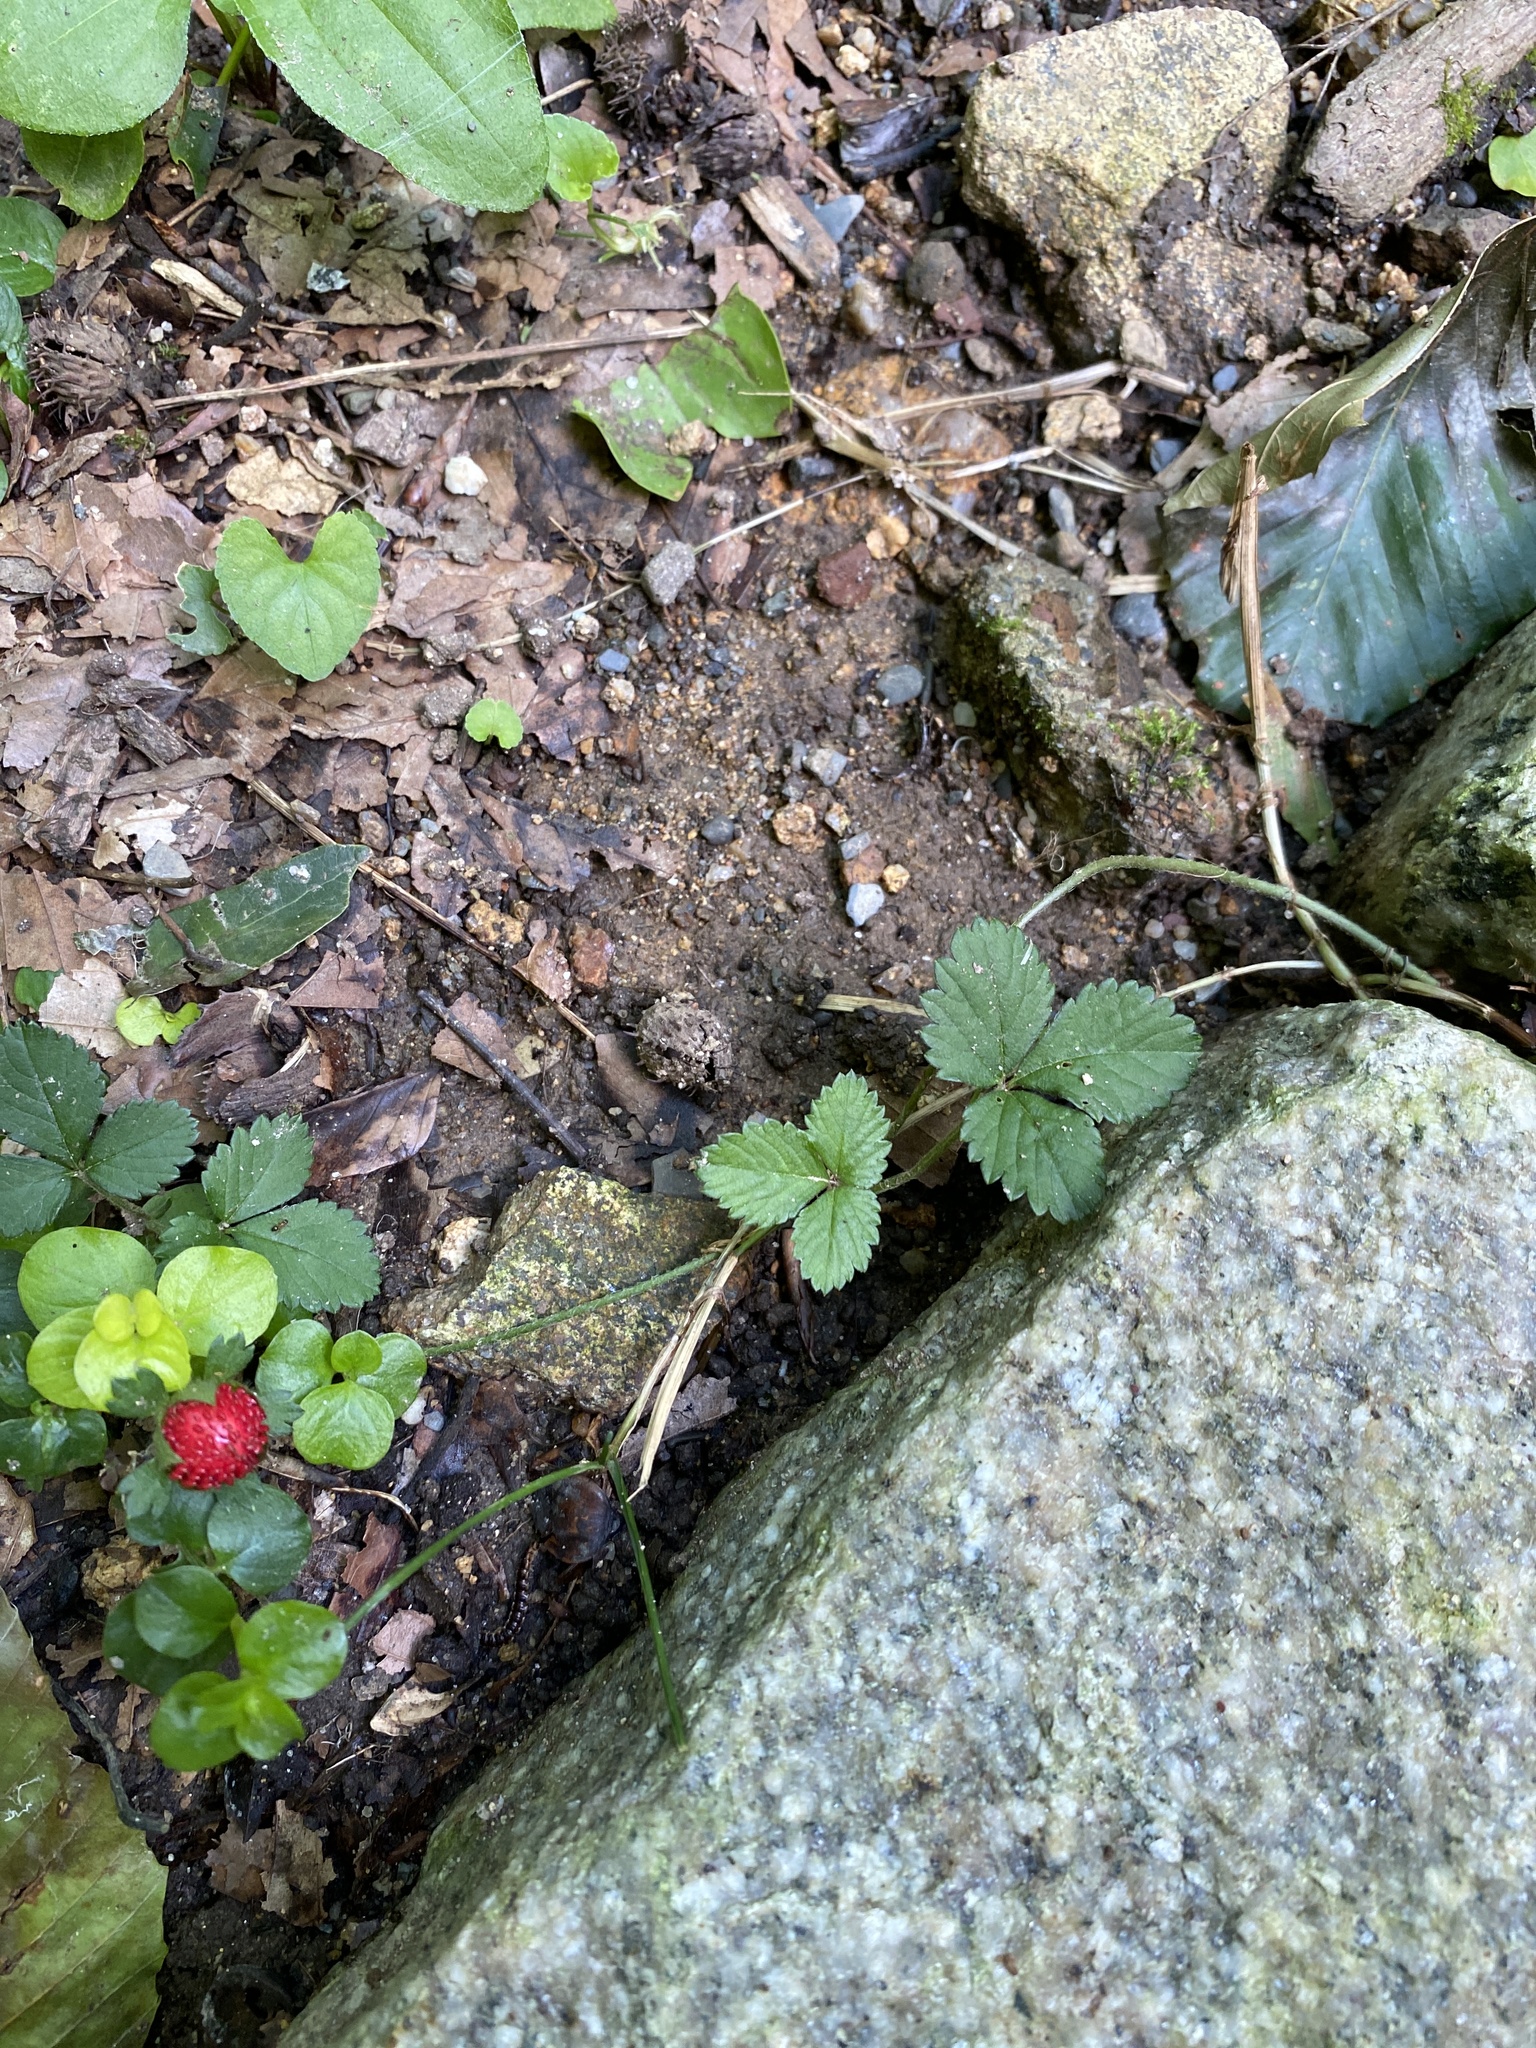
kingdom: Plantae
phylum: Tracheophyta
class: Magnoliopsida
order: Rosales
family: Rosaceae
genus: Potentilla
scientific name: Potentilla indica
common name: Yellow-flowered strawberry
